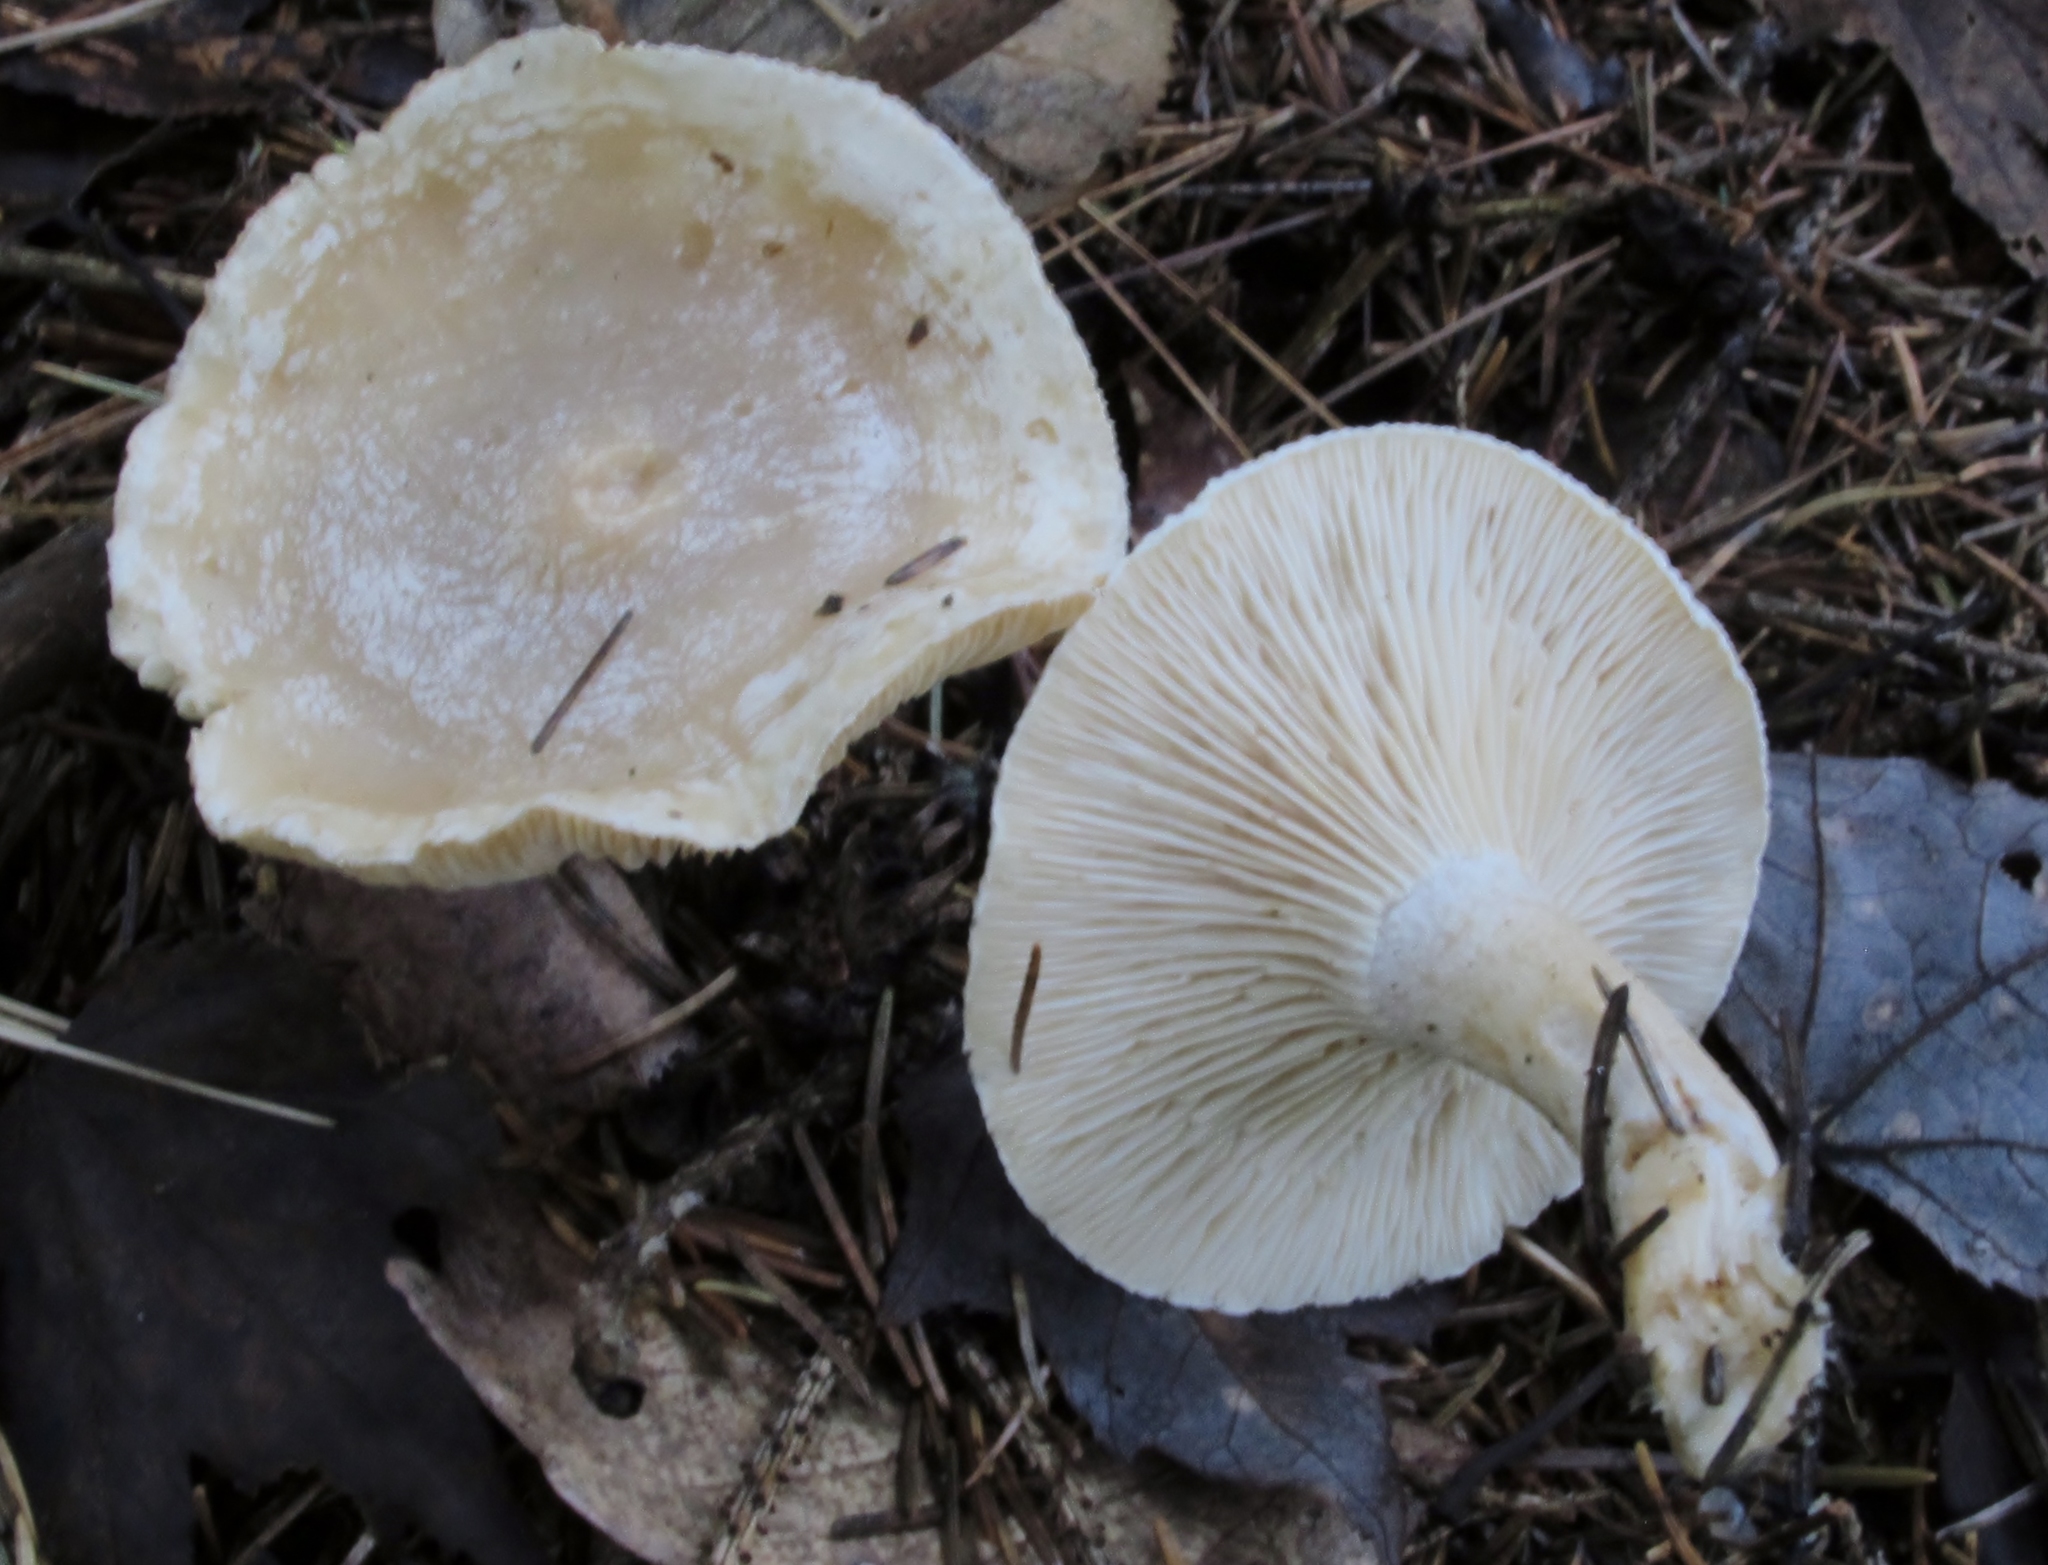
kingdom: Fungi
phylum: Basidiomycota
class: Agaricomycetes
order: Agaricales
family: Tricholomataceae
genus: Lulesia
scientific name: Lulesia
